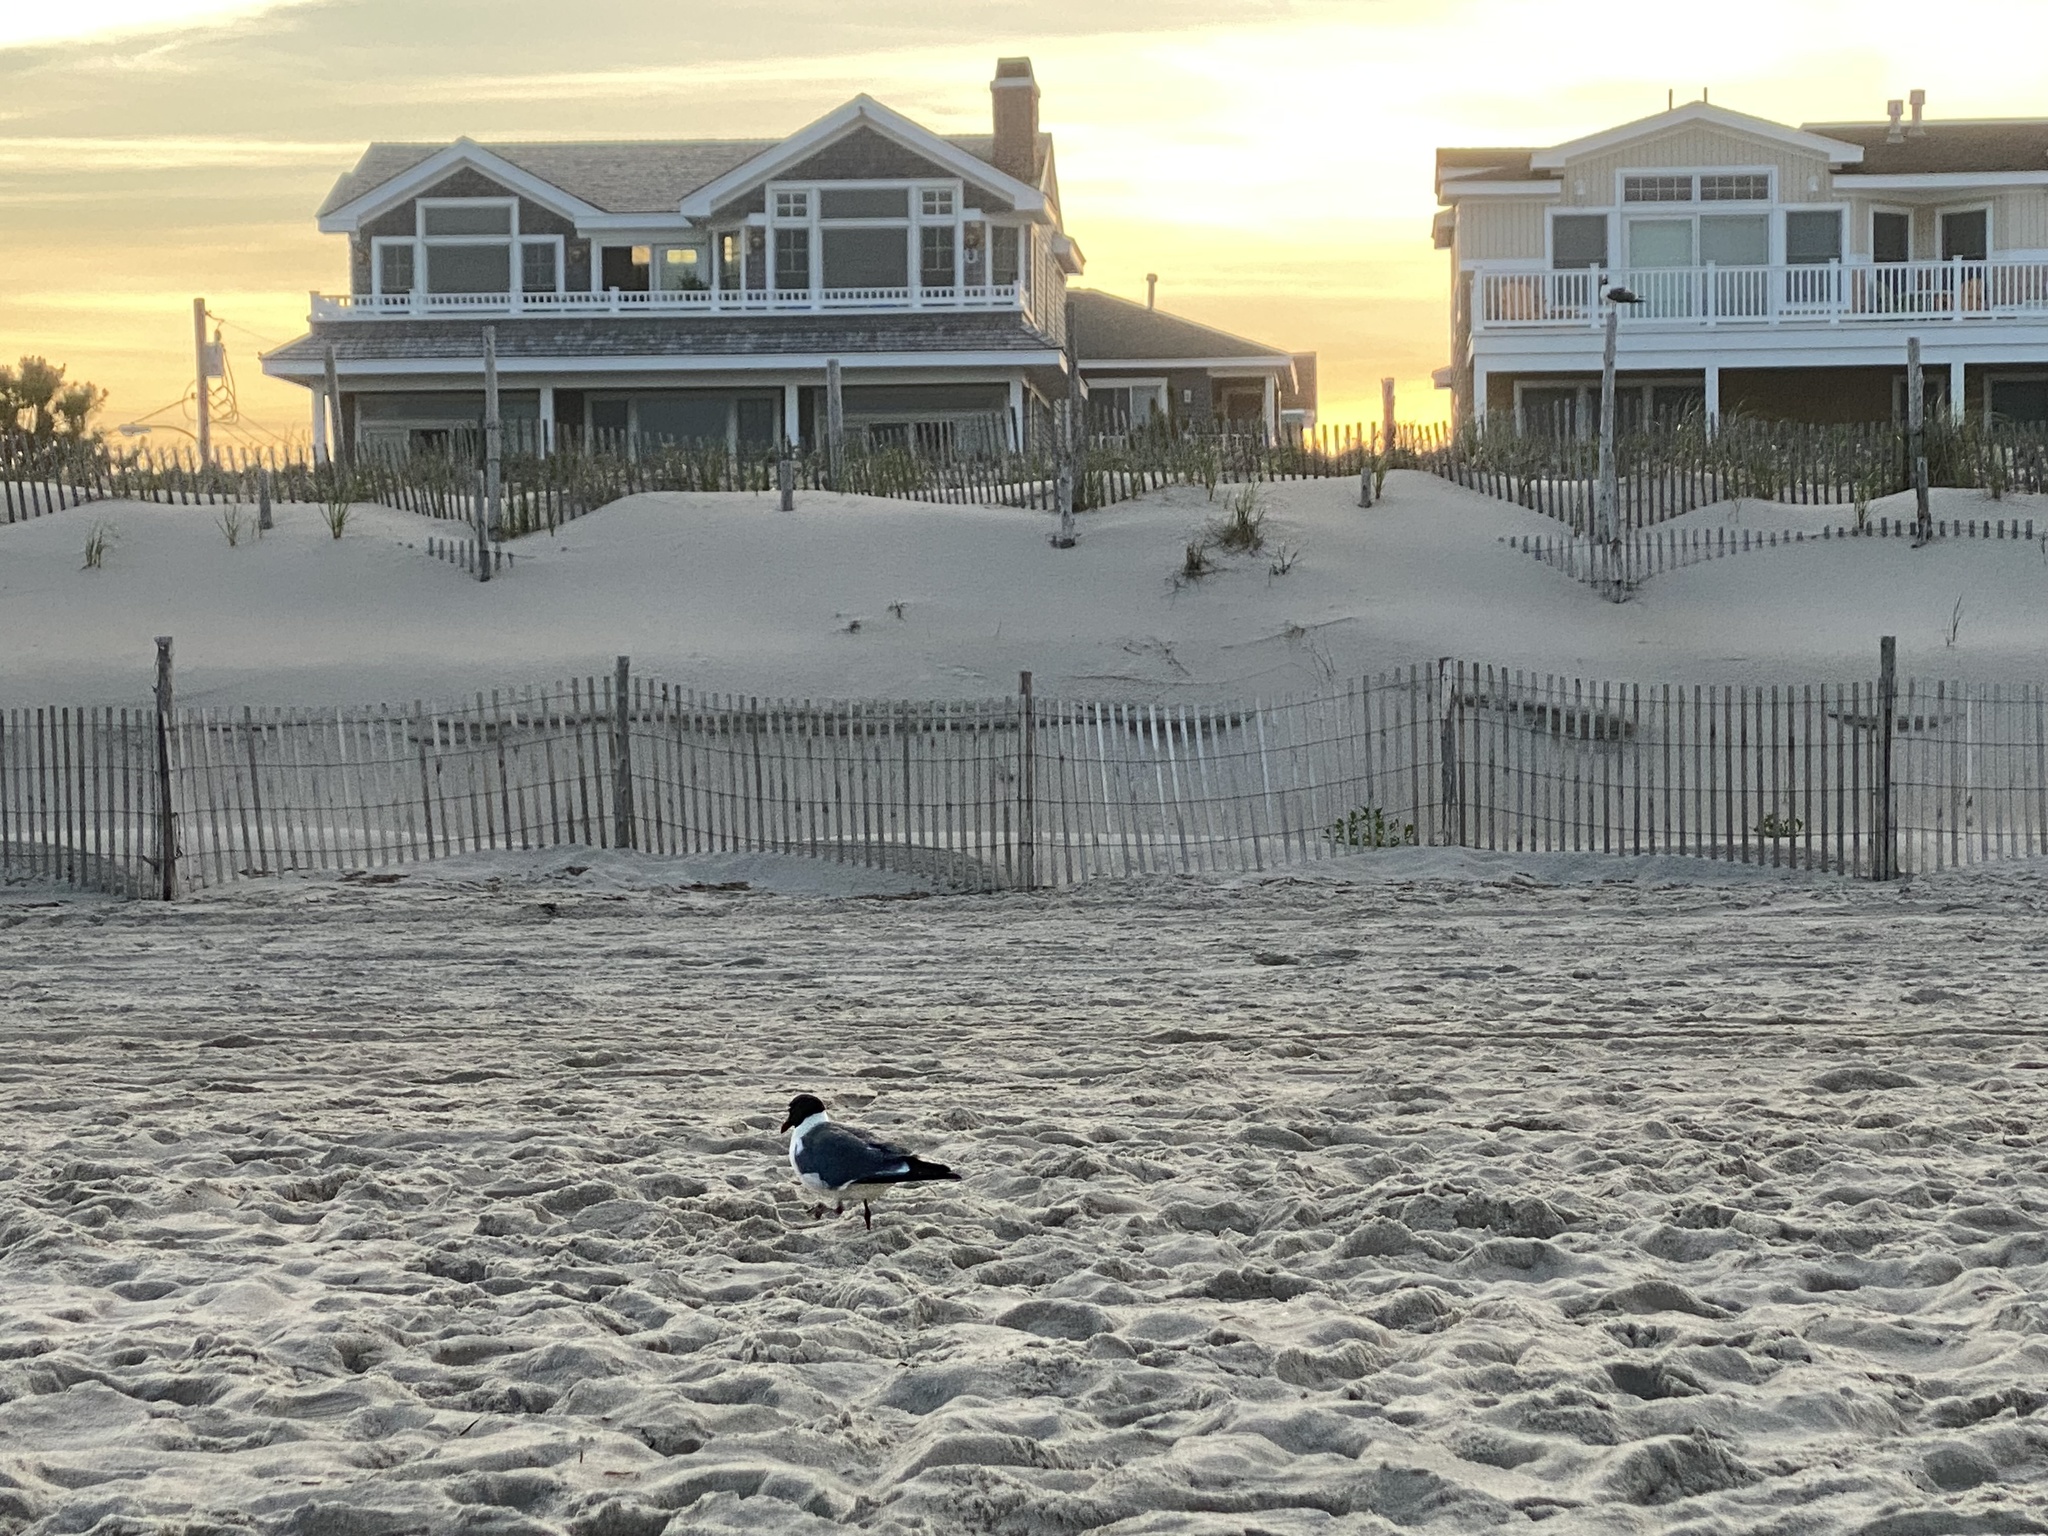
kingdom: Animalia
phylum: Chordata
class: Aves
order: Charadriiformes
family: Laridae
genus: Leucophaeus
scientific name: Leucophaeus atricilla
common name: Laughing gull
